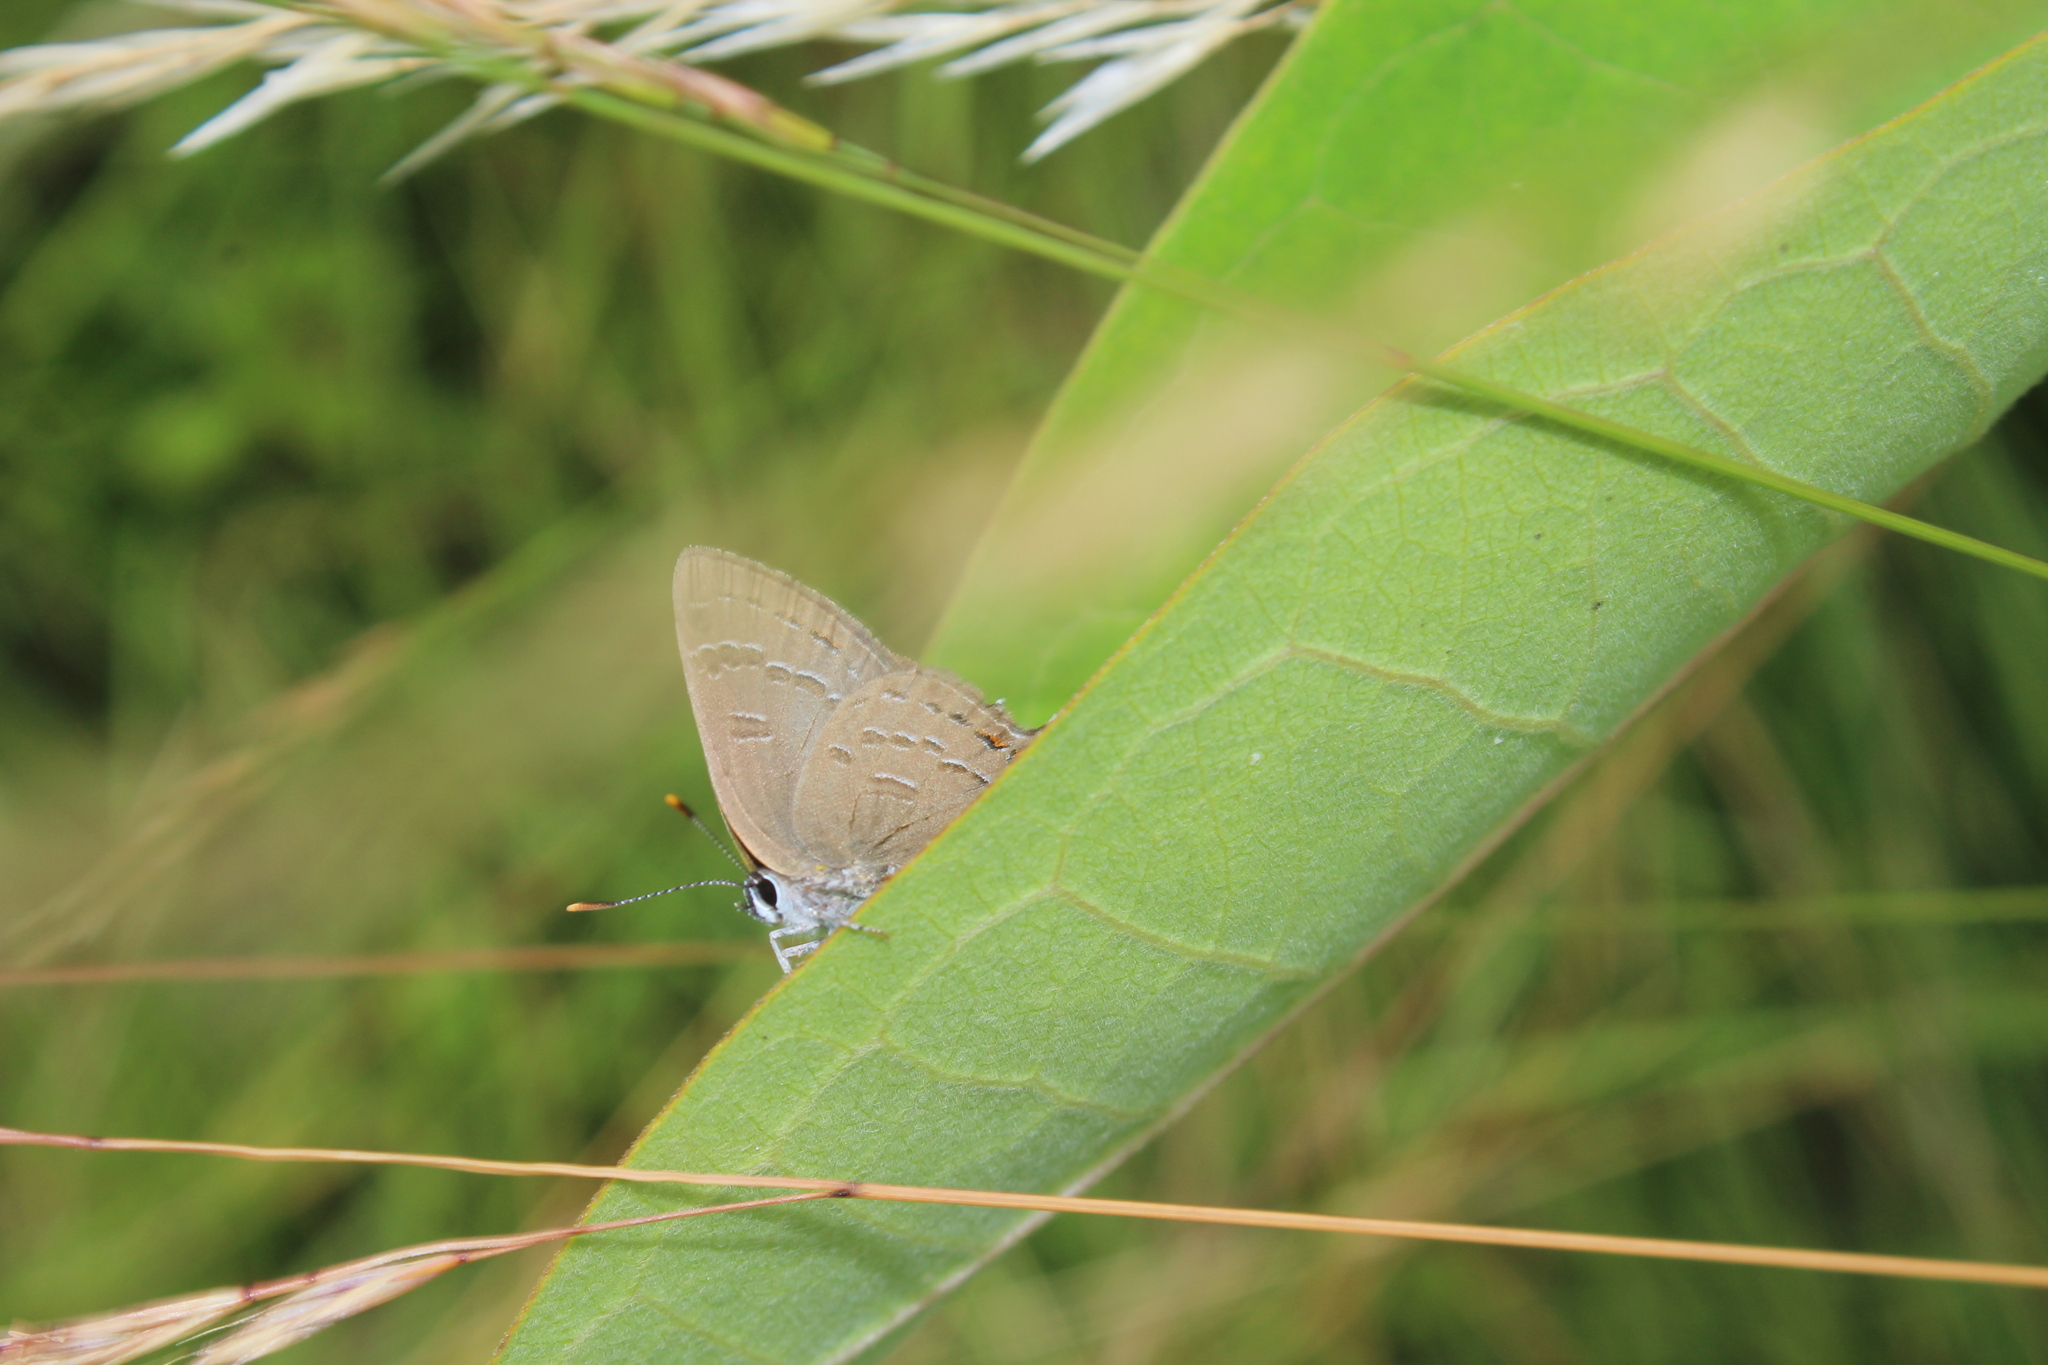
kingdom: Animalia
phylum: Arthropoda
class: Insecta
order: Lepidoptera
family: Lycaenidae
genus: Satyrium
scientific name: Satyrium calanus
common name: Banded hairstreak
